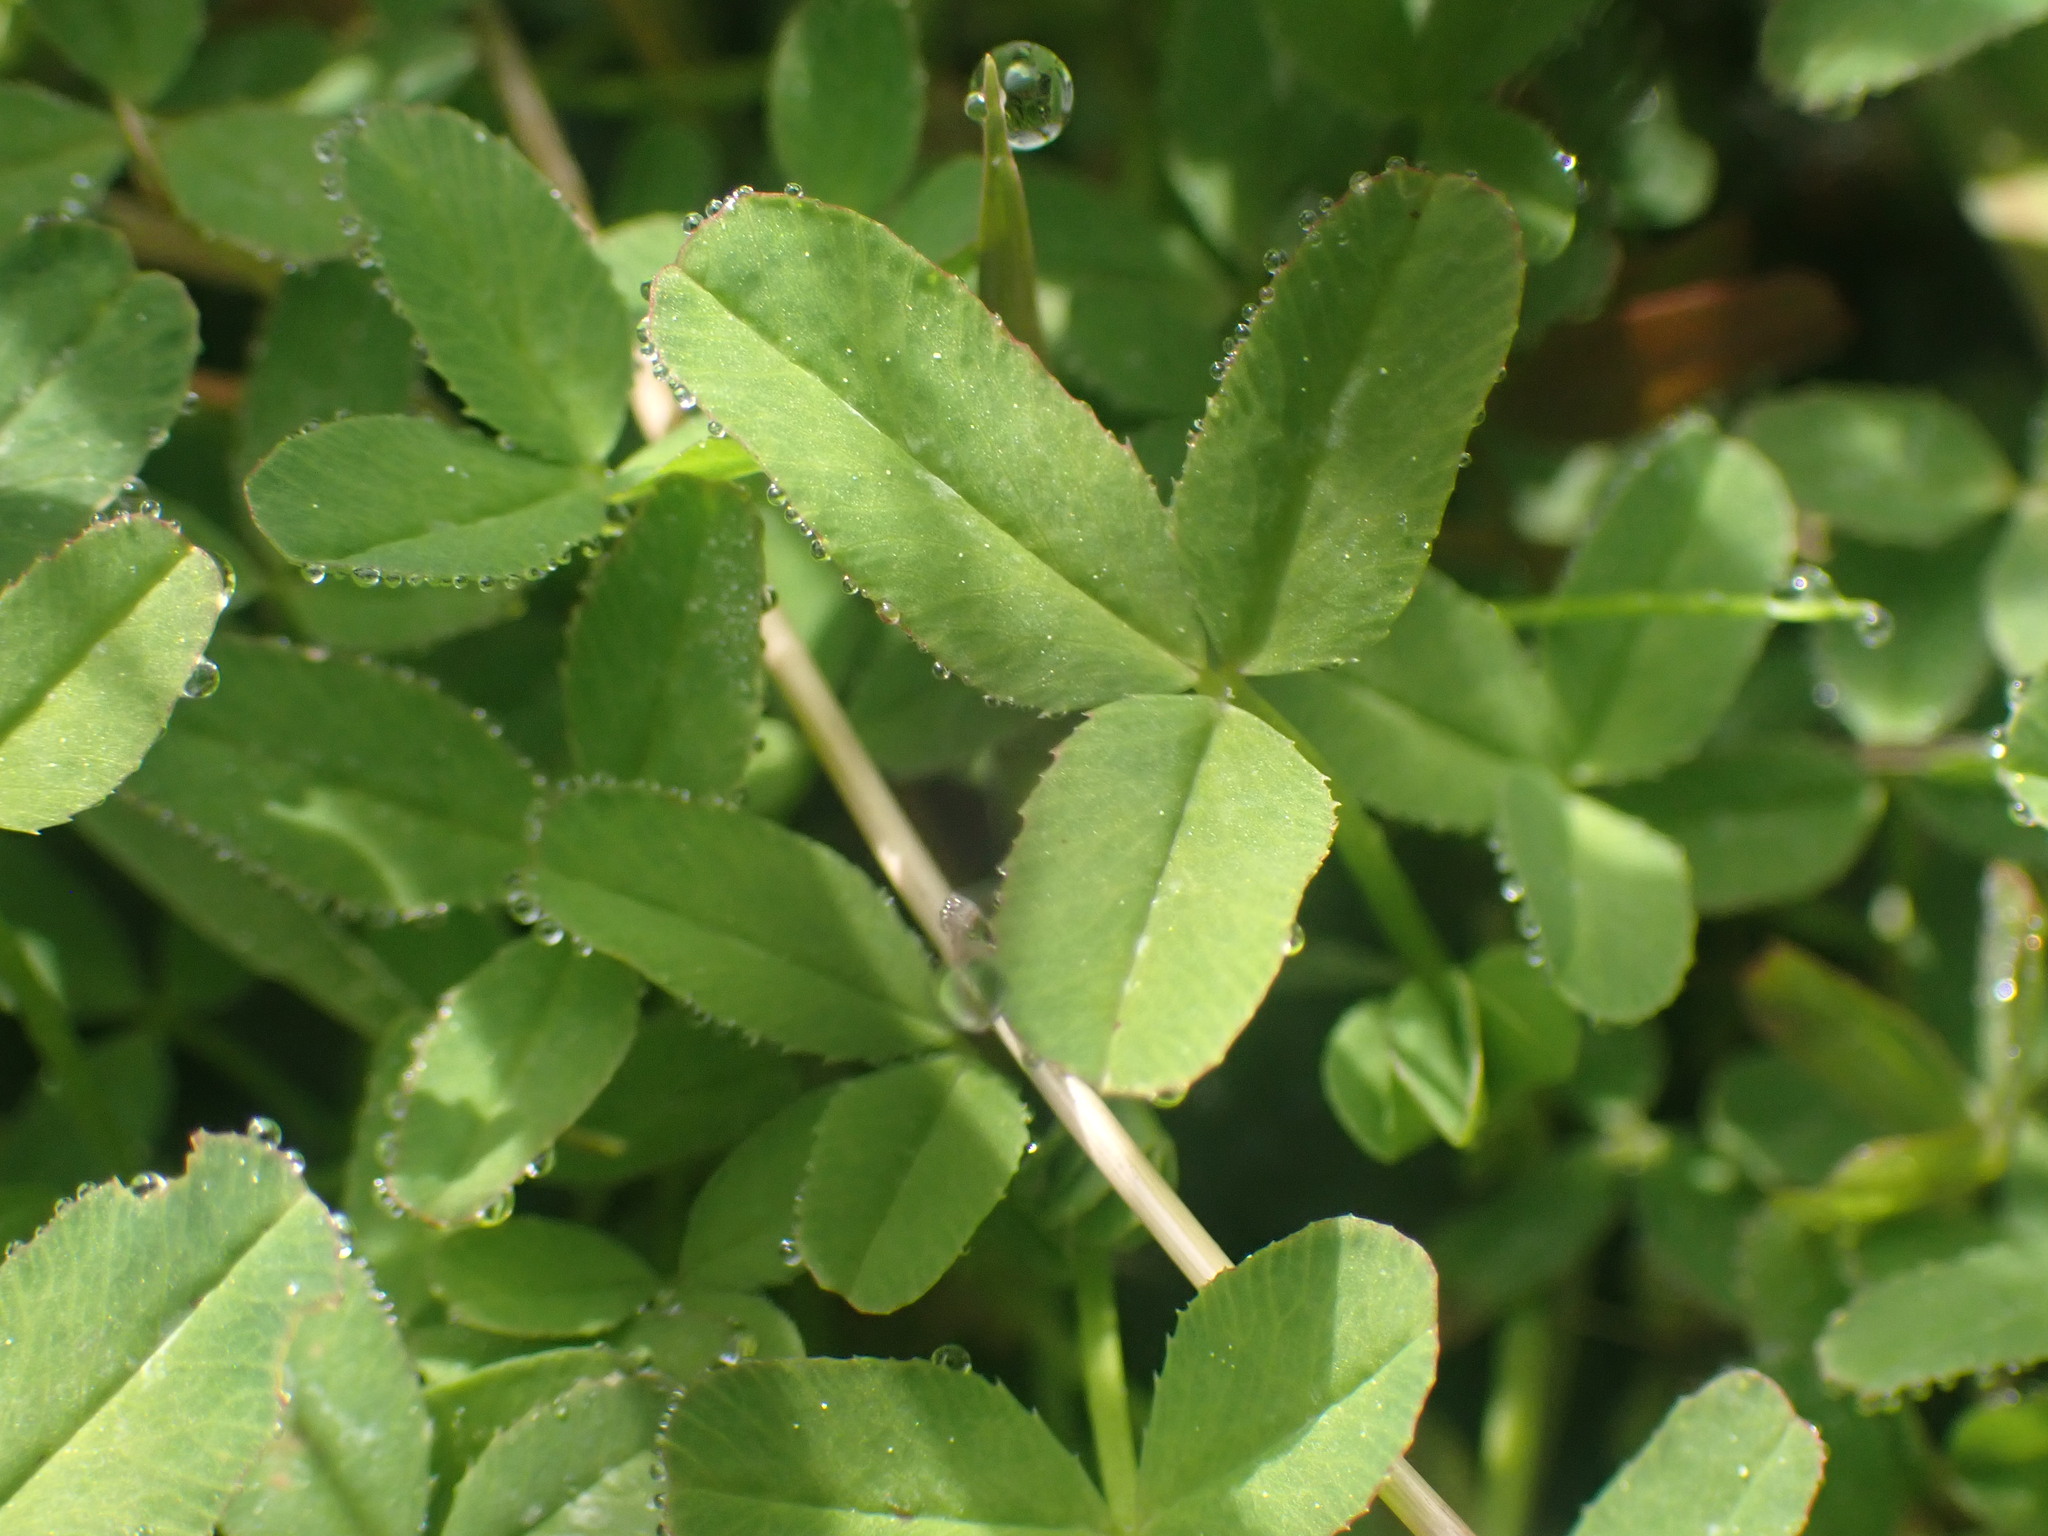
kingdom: Plantae
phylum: Tracheophyta
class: Magnoliopsida
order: Fabales
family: Fabaceae
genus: Trifolium
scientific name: Trifolium wormskioldii
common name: Springbank clover
